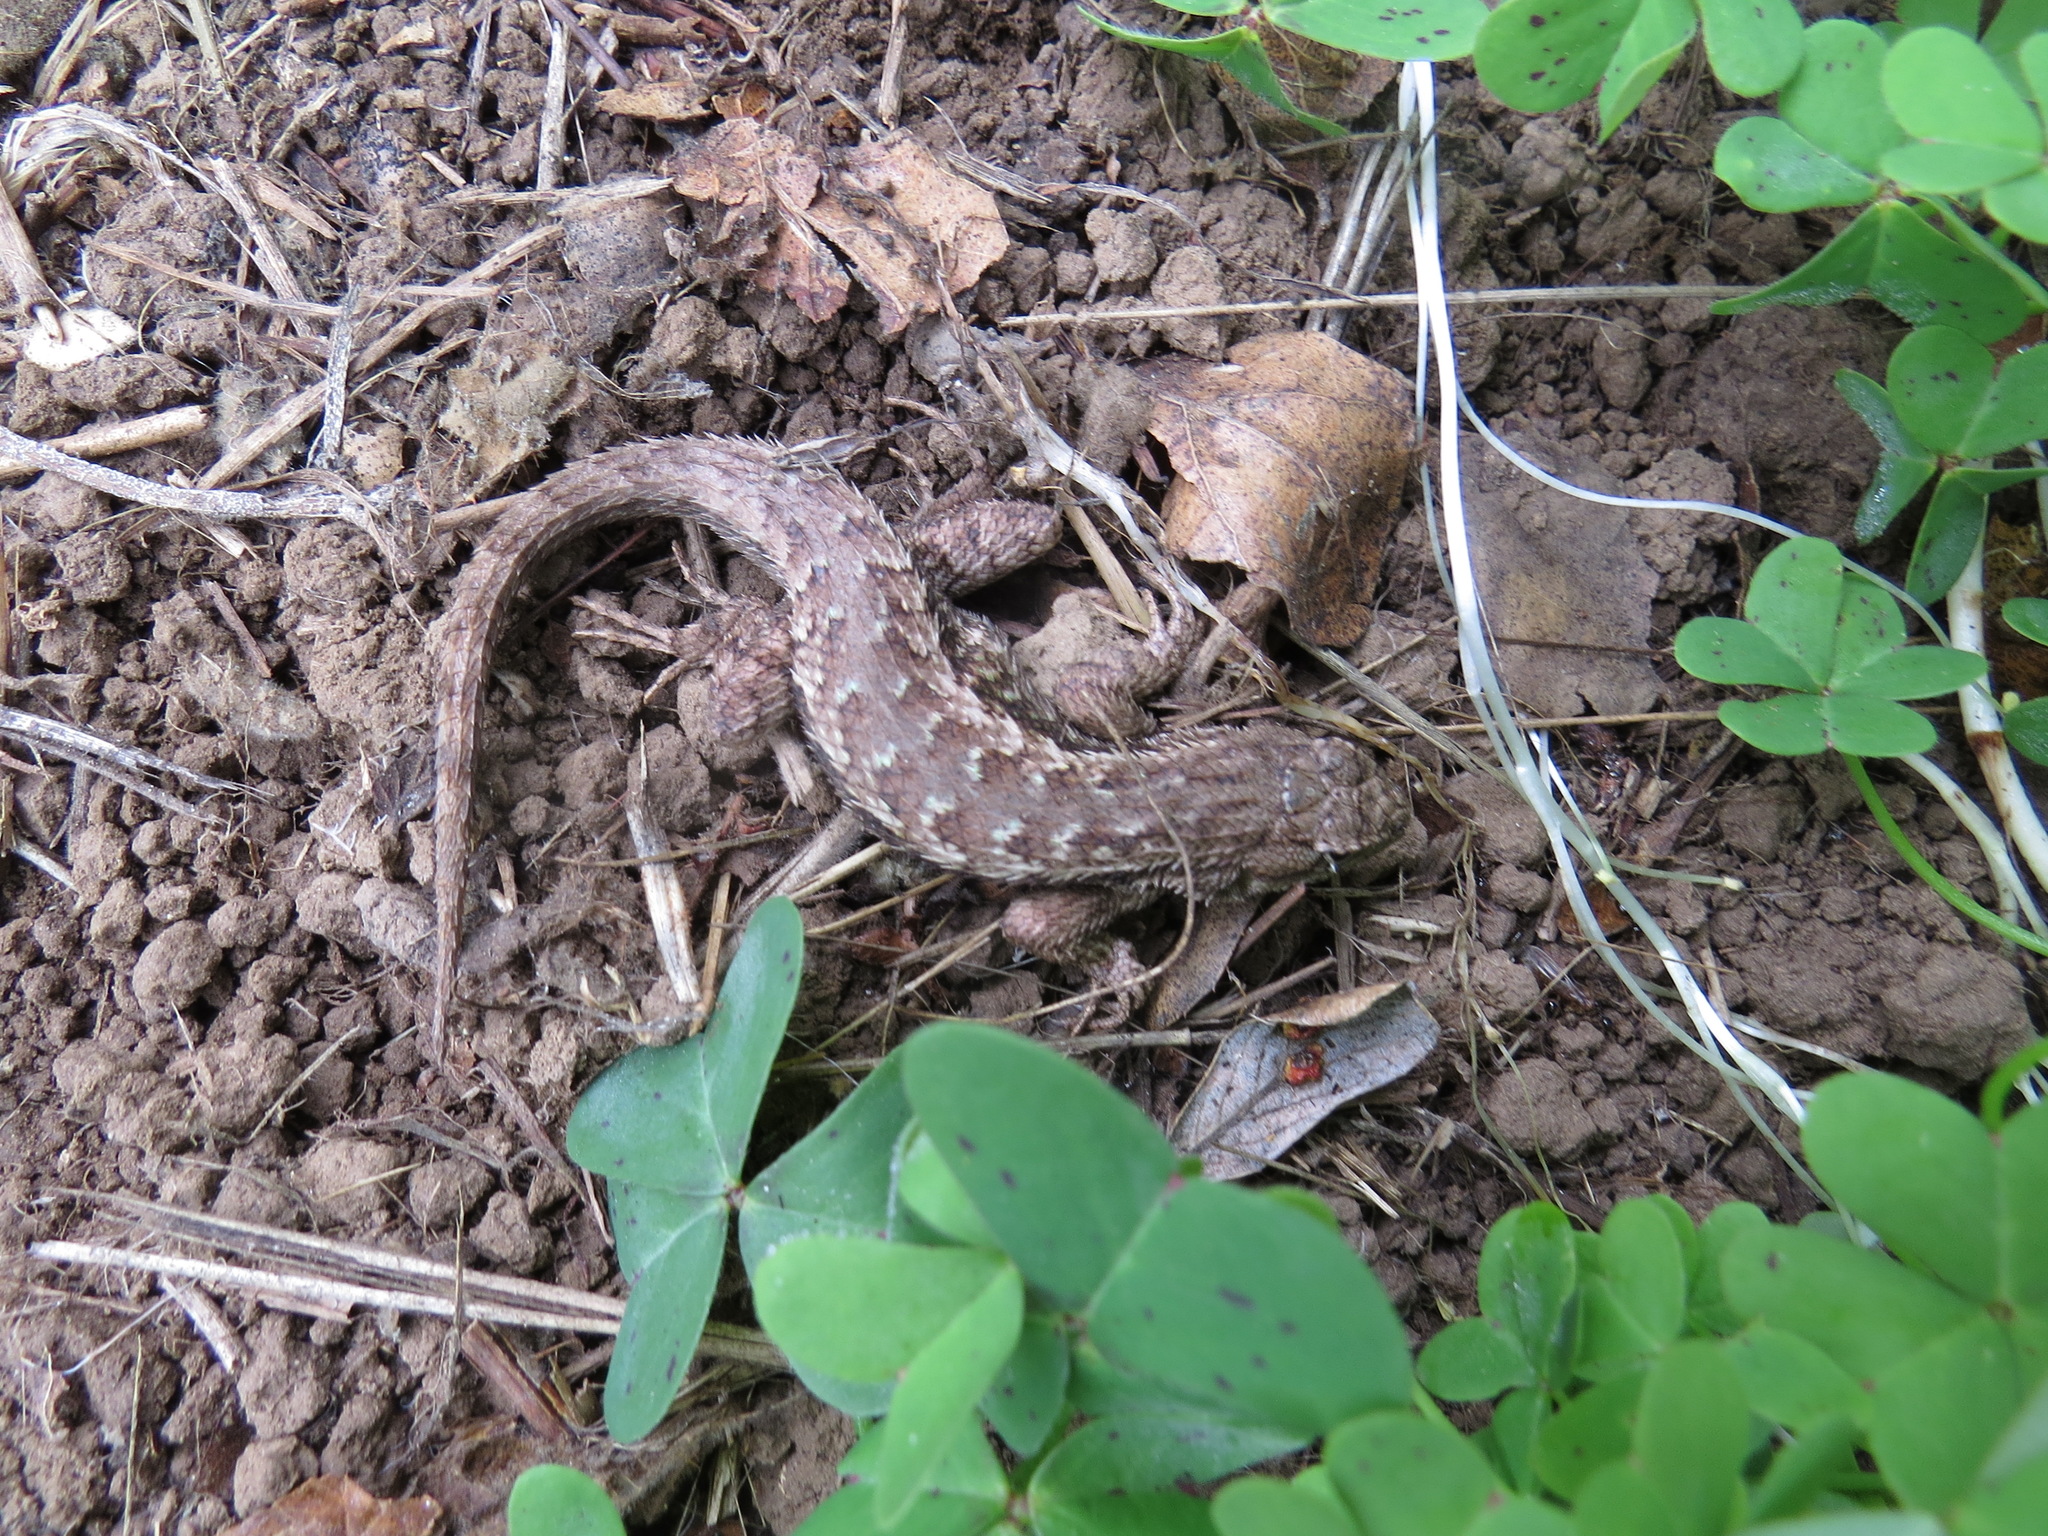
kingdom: Animalia
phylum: Chordata
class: Squamata
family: Phrynosomatidae
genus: Sceloporus
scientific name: Sceloporus occidentalis
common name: Western fence lizard
